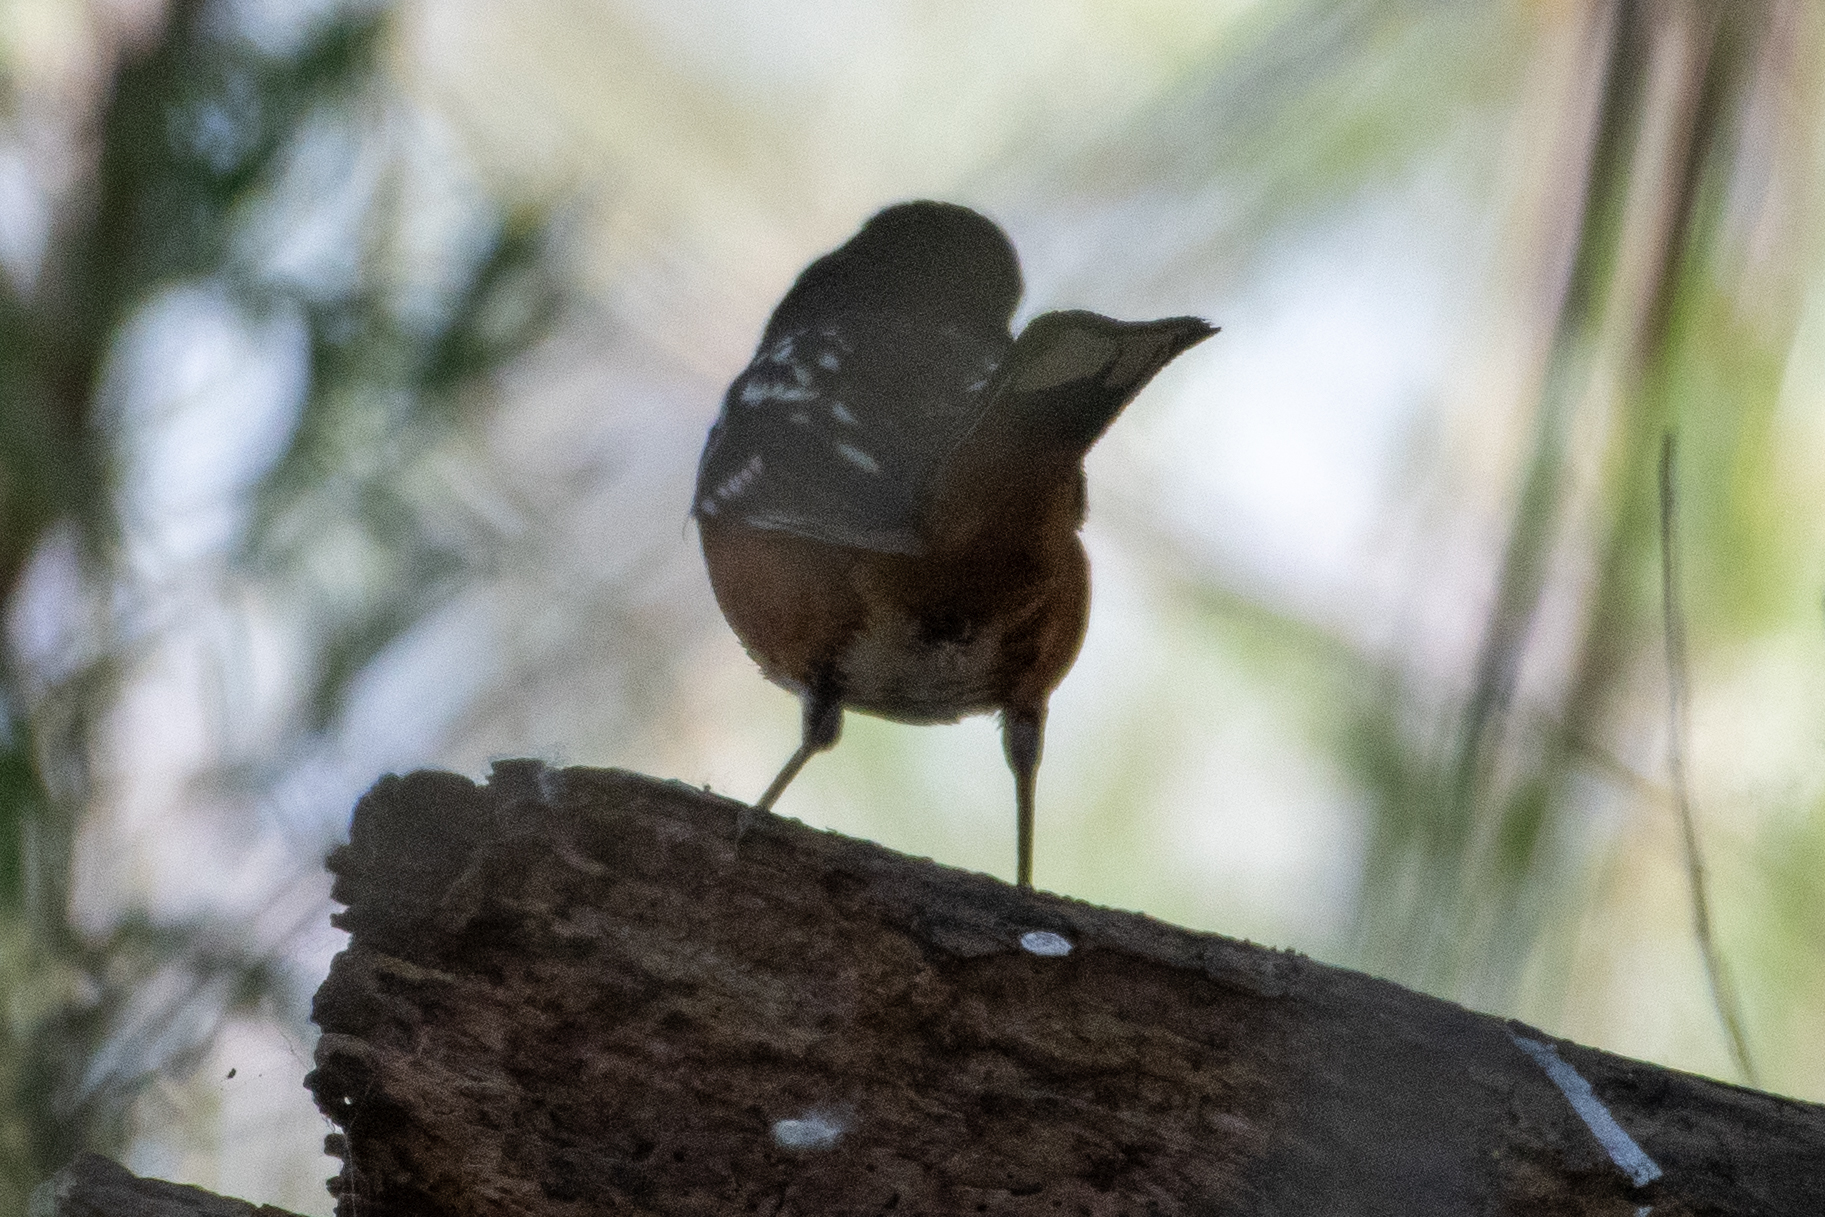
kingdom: Animalia
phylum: Chordata
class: Aves
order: Passeriformes
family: Passerellidae
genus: Pipilo
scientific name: Pipilo maculatus
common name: Spotted towhee
